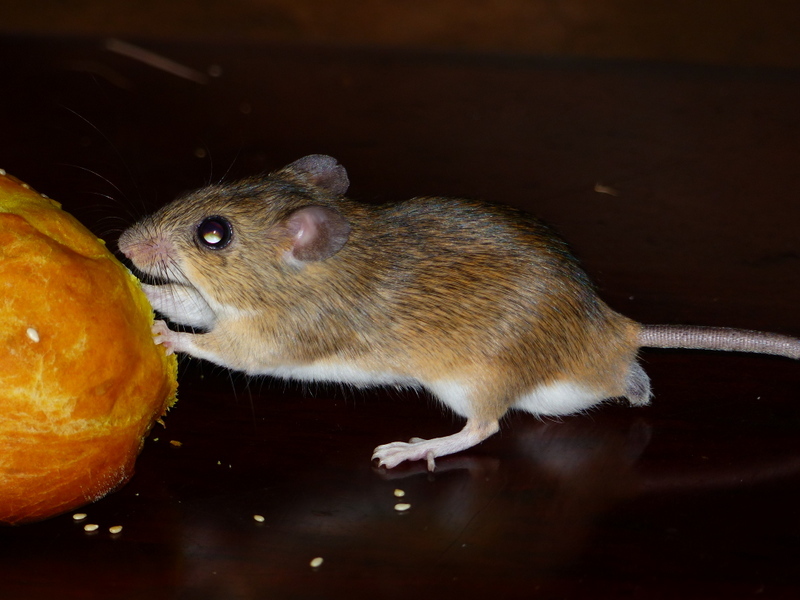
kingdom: Animalia
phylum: Chordata
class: Mammalia
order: Rodentia
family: Muridae
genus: Micaelamys
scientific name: Micaelamys namaquensis
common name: Namaqua micaelamys
